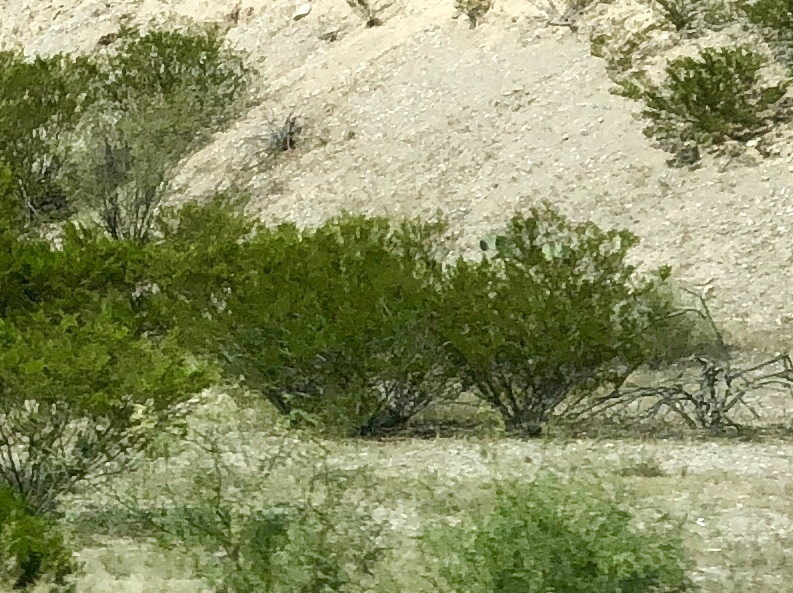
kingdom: Plantae
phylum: Tracheophyta
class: Magnoliopsida
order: Zygophyllales
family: Zygophyllaceae
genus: Larrea
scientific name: Larrea tridentata
